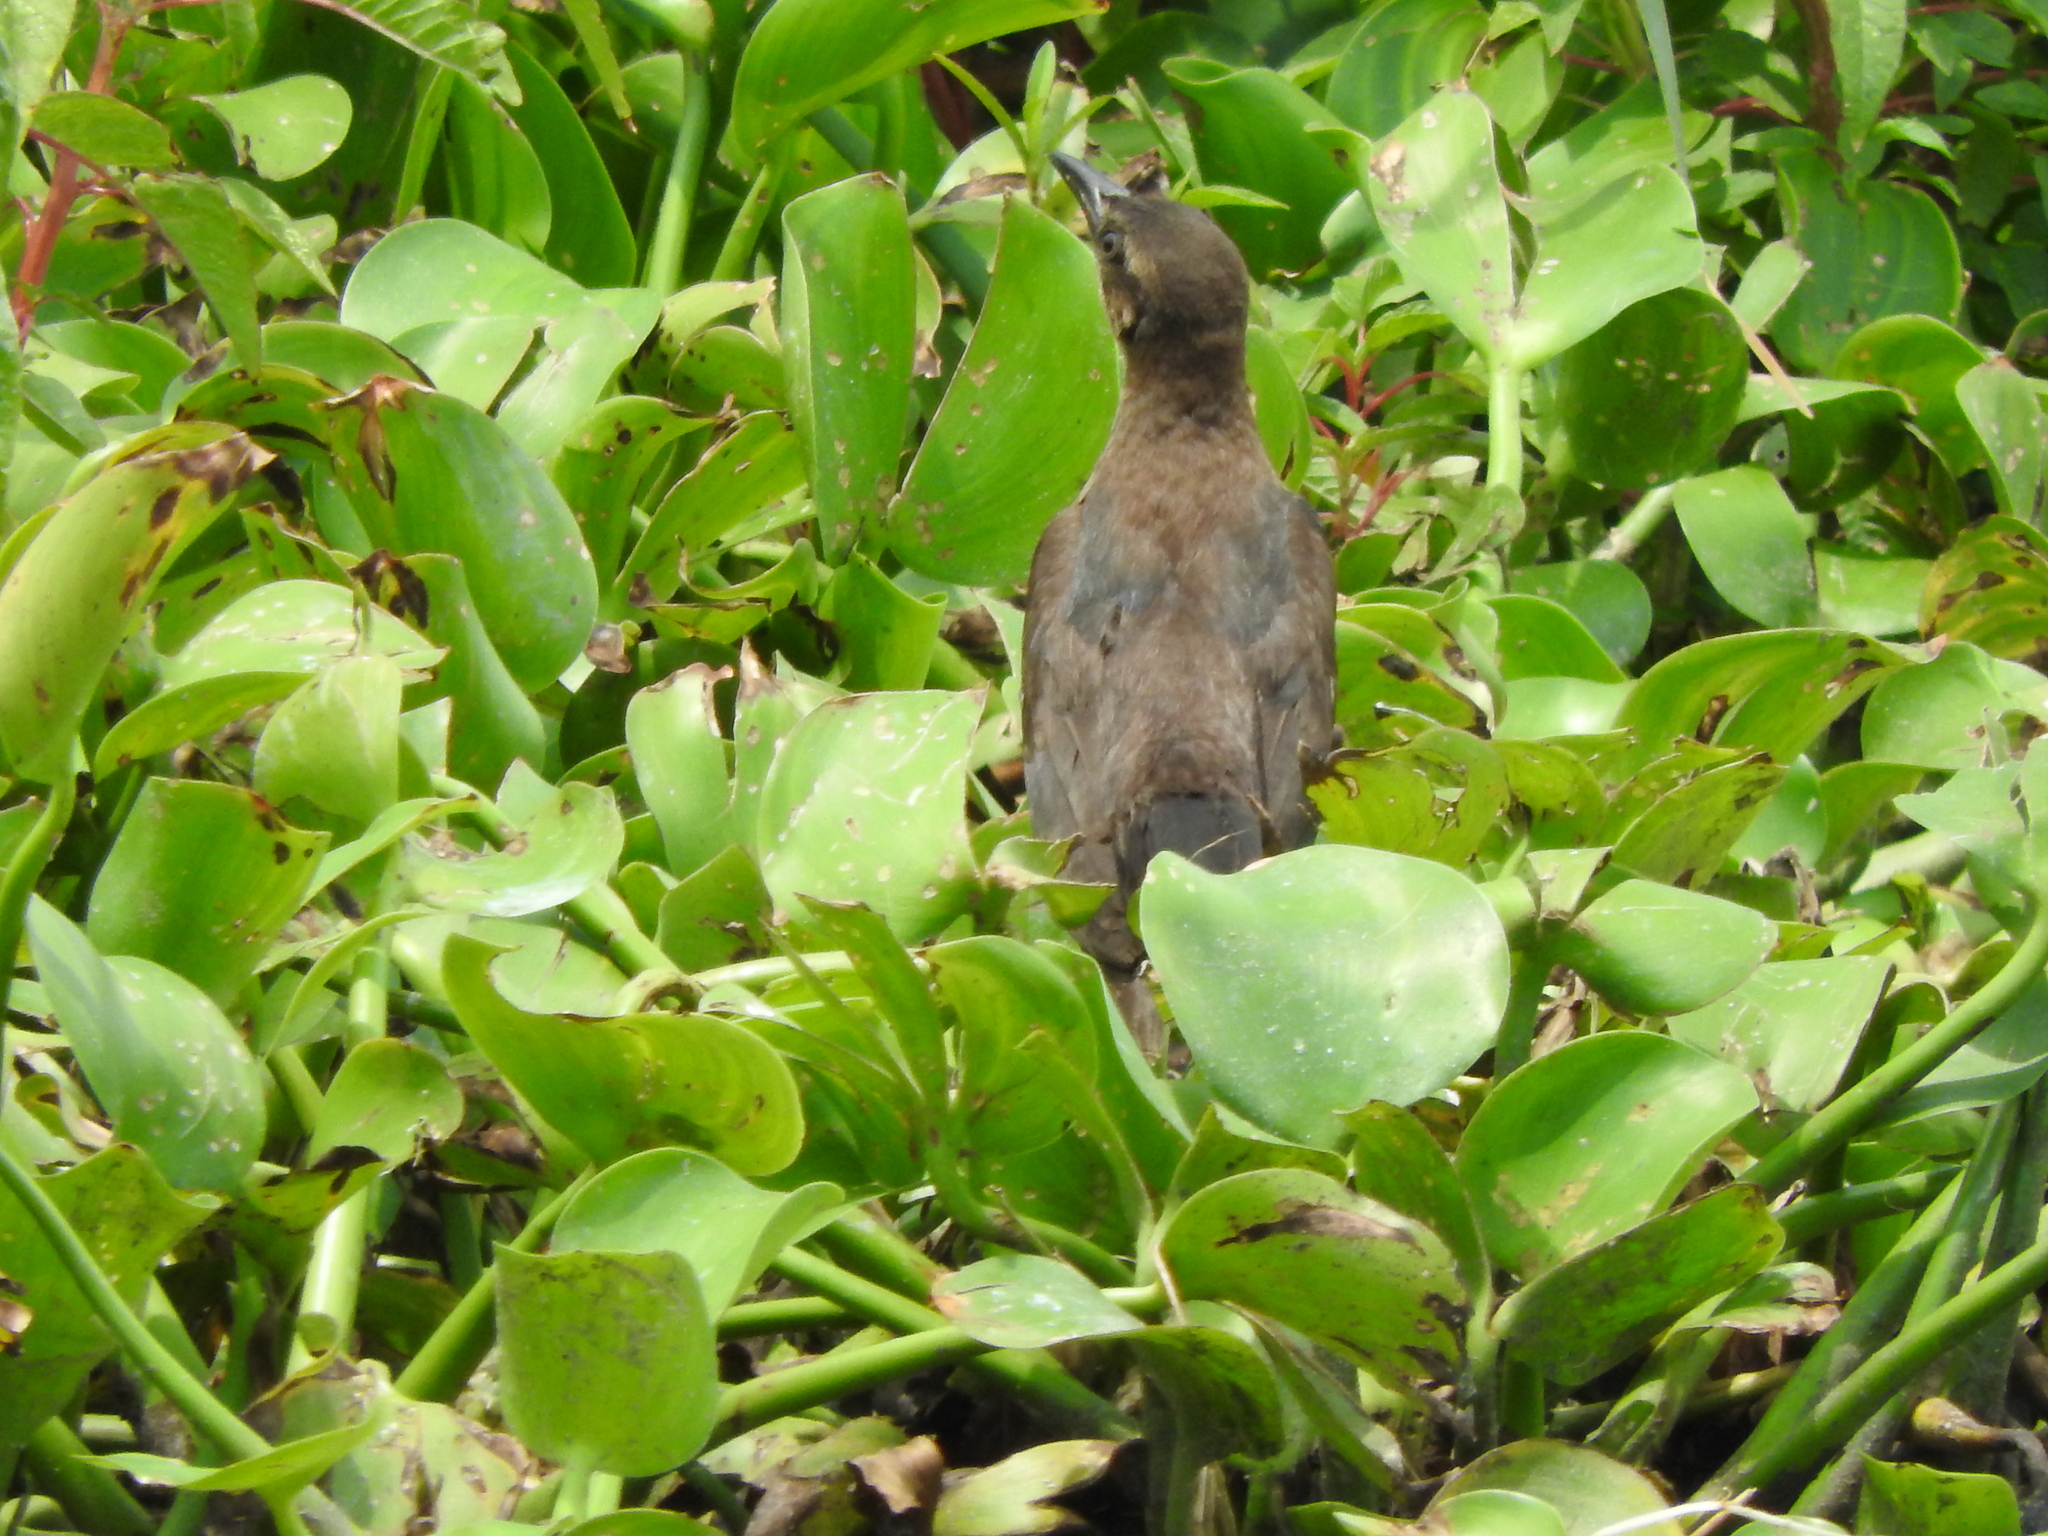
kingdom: Animalia
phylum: Chordata
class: Aves
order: Passeriformes
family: Icteridae
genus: Quiscalus
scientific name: Quiscalus mexicanus
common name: Great-tailed grackle
